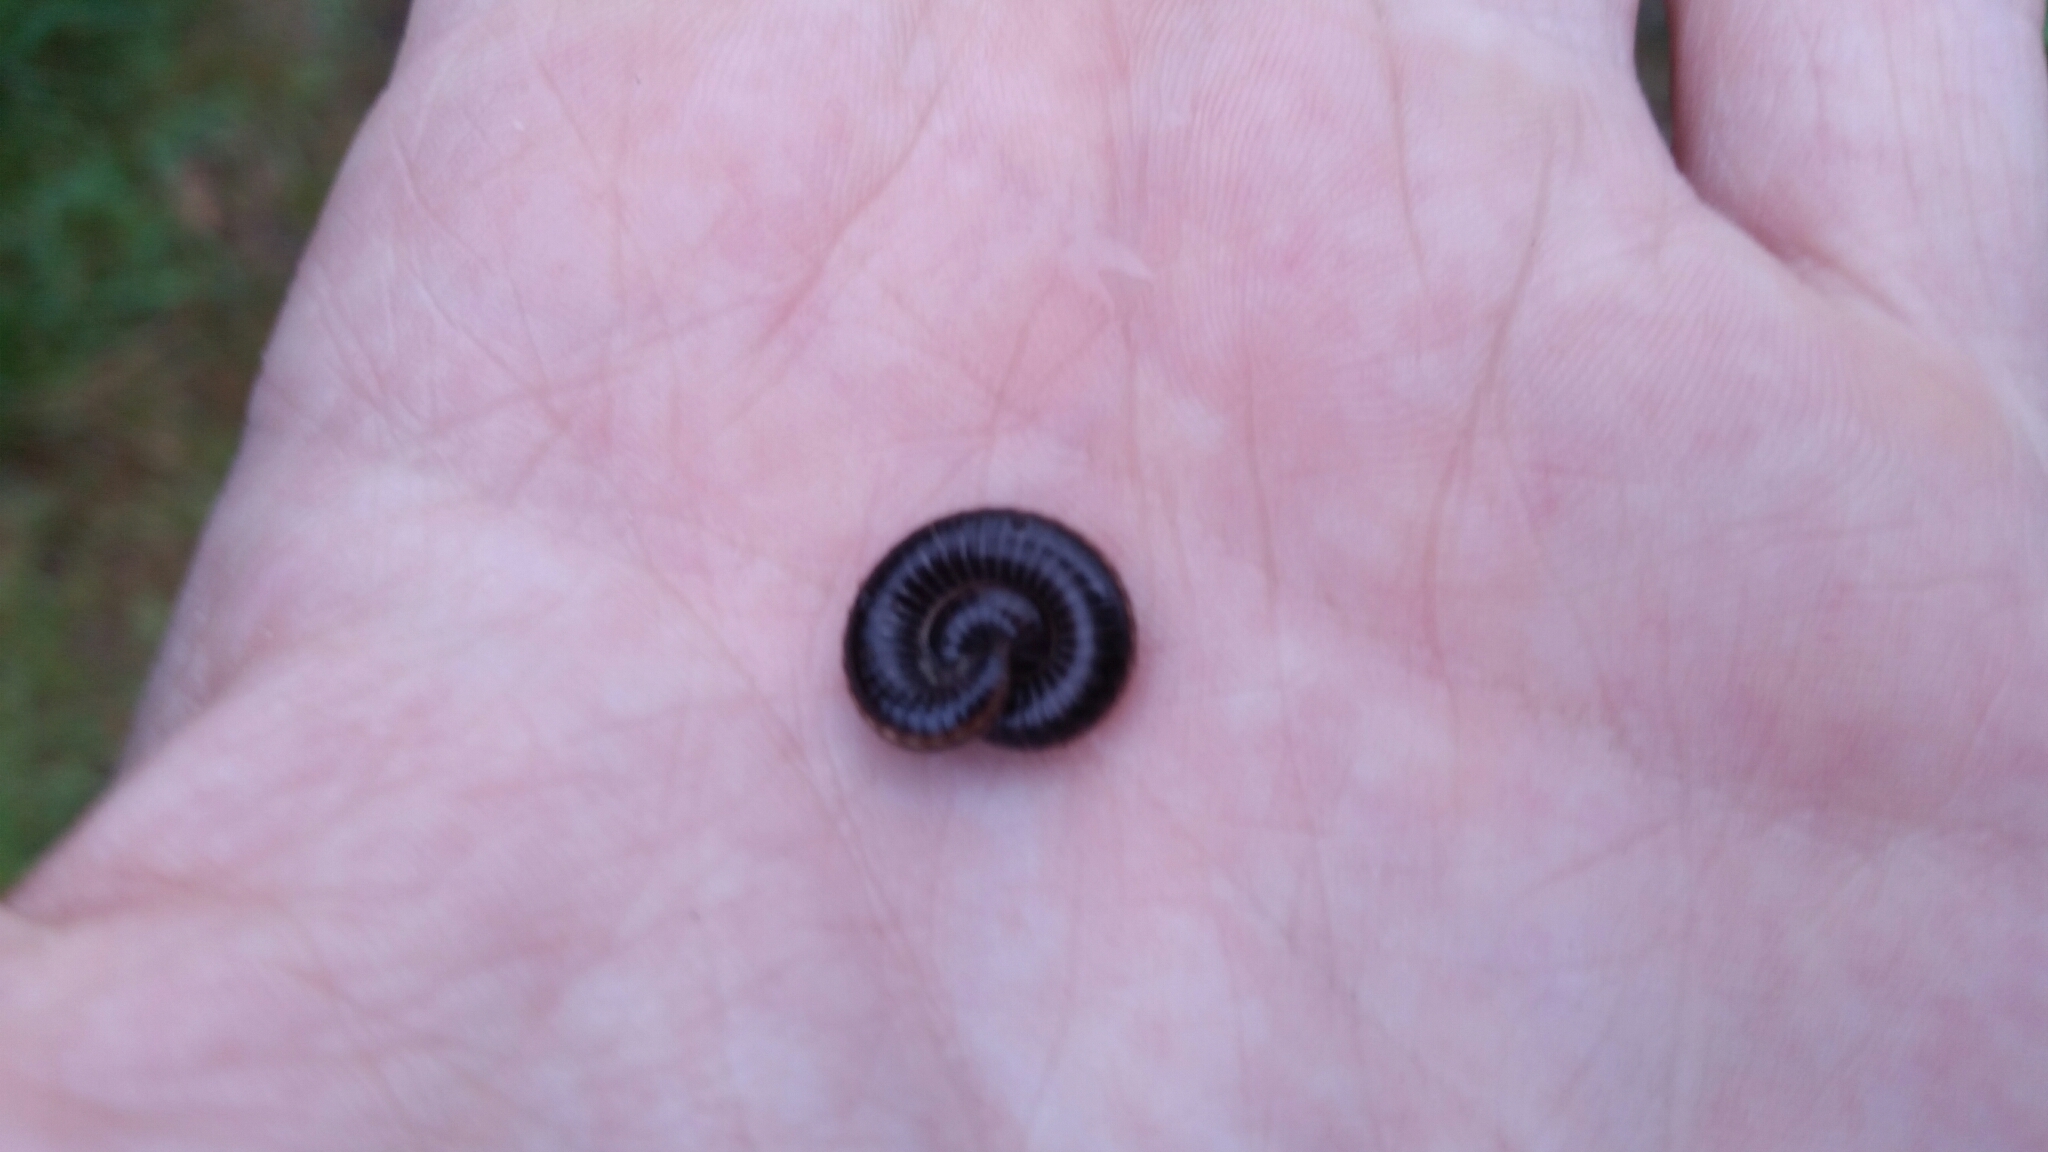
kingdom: Animalia
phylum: Arthropoda
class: Diplopoda
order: Julida
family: Julidae
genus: Ommatoiulus
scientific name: Ommatoiulus sabulosus
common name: Striped millipede
